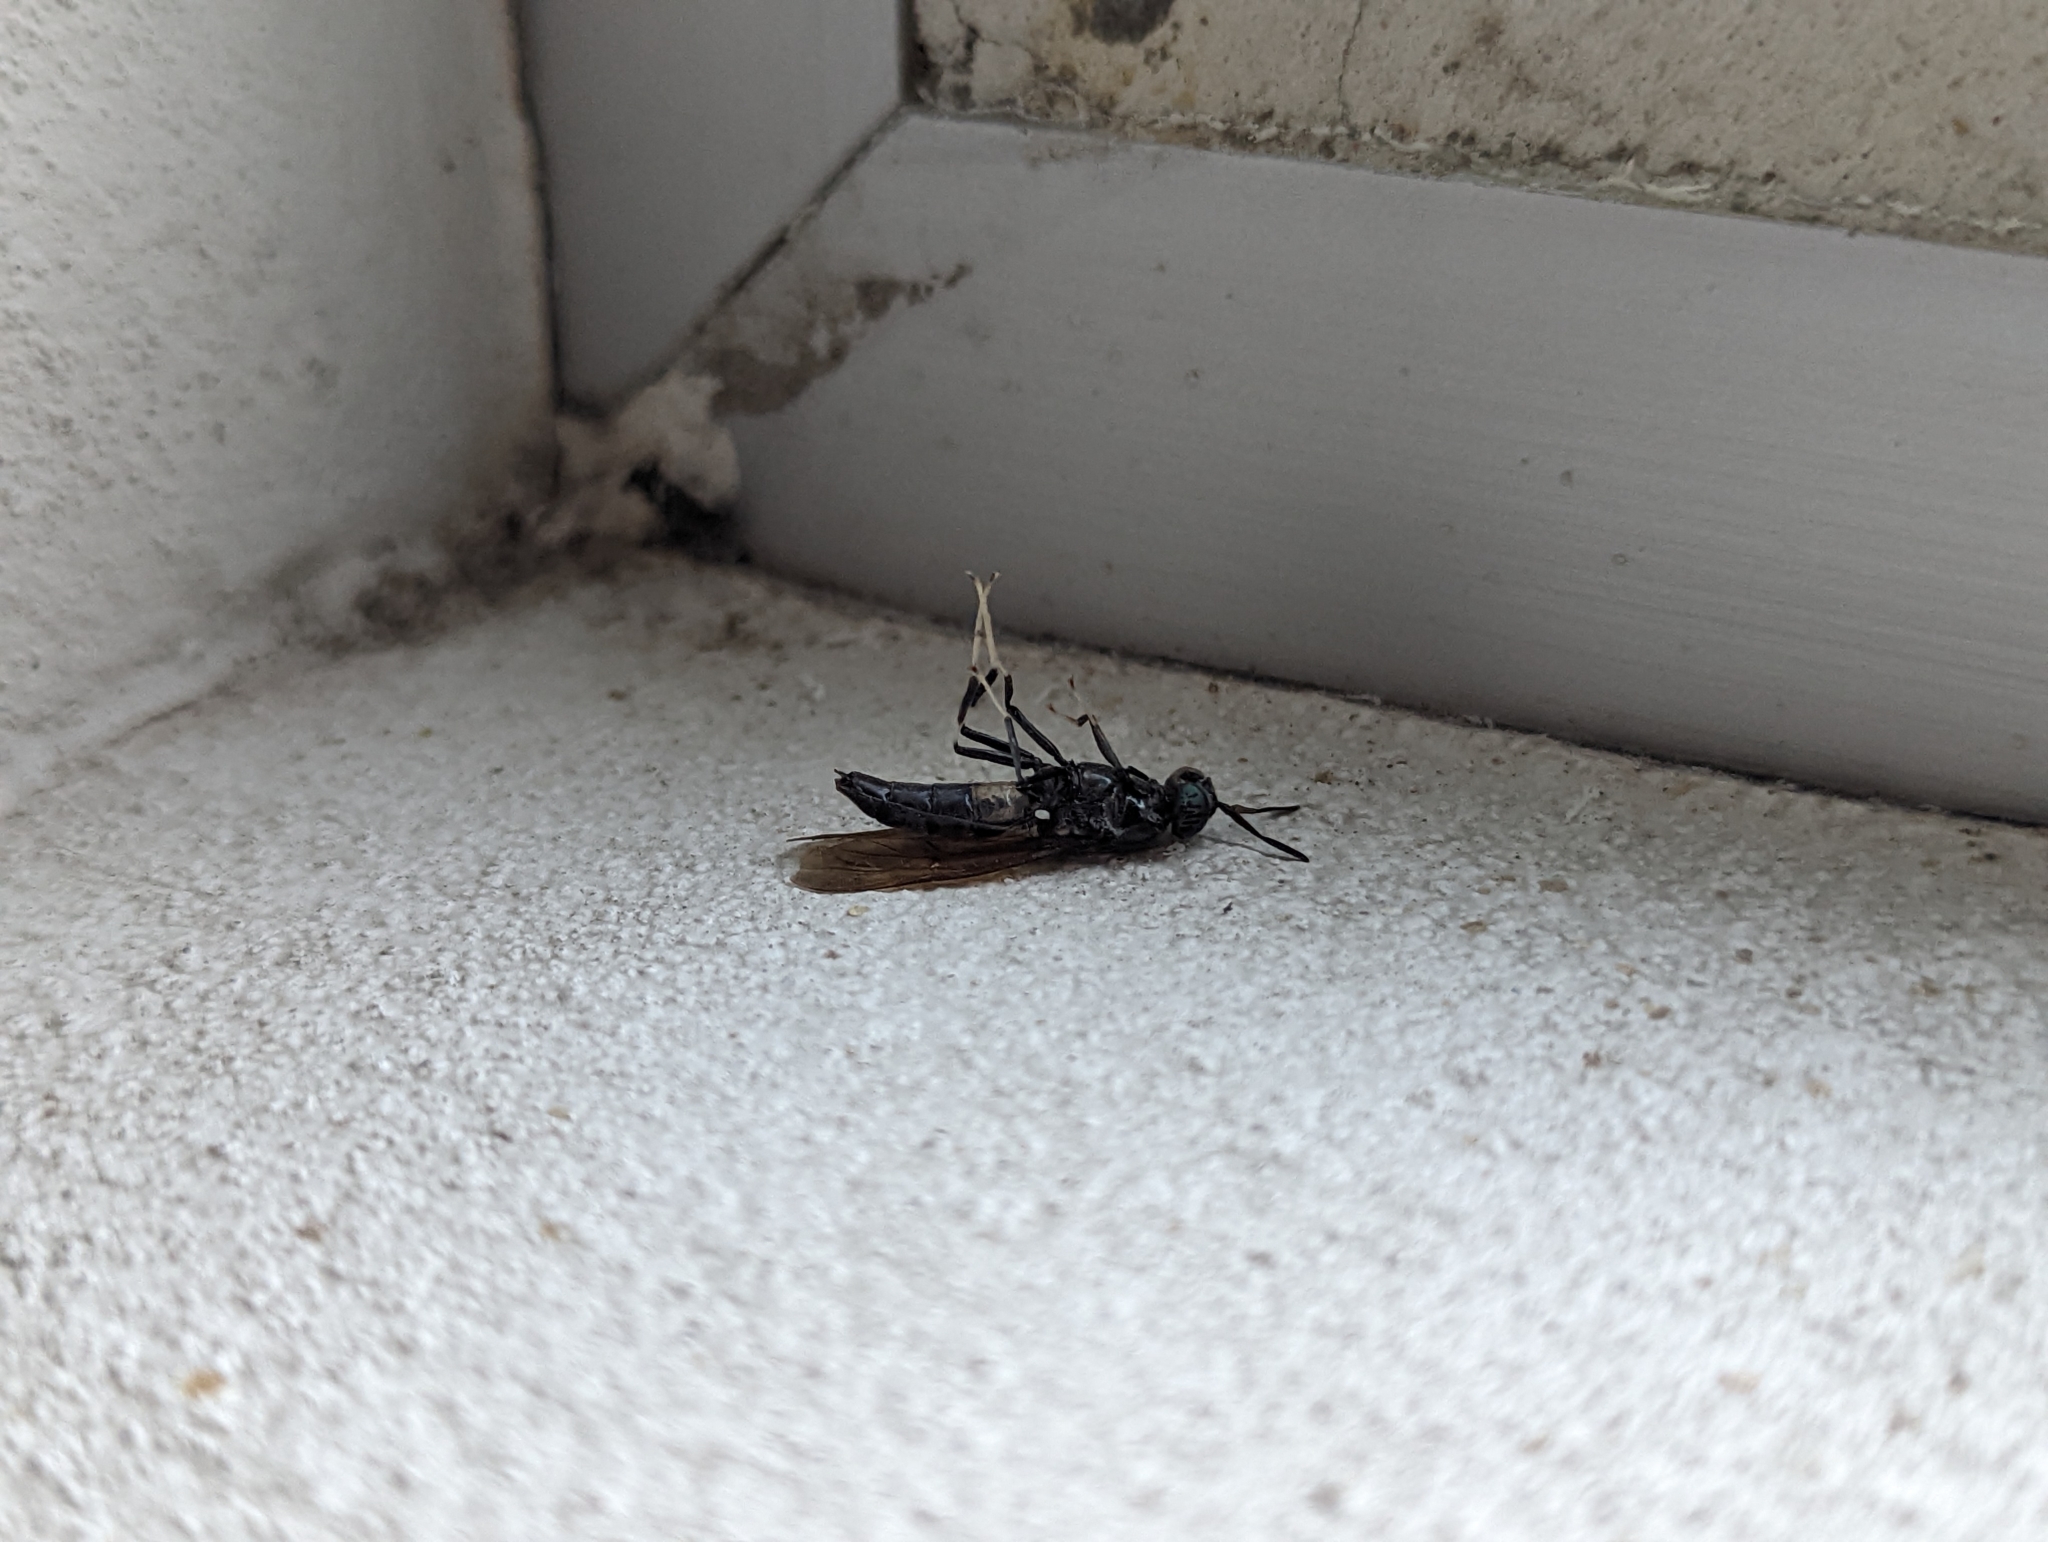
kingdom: Animalia
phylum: Arthropoda
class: Insecta
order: Diptera
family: Stratiomyidae
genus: Hermetia
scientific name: Hermetia illucens
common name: Black soldier fly
